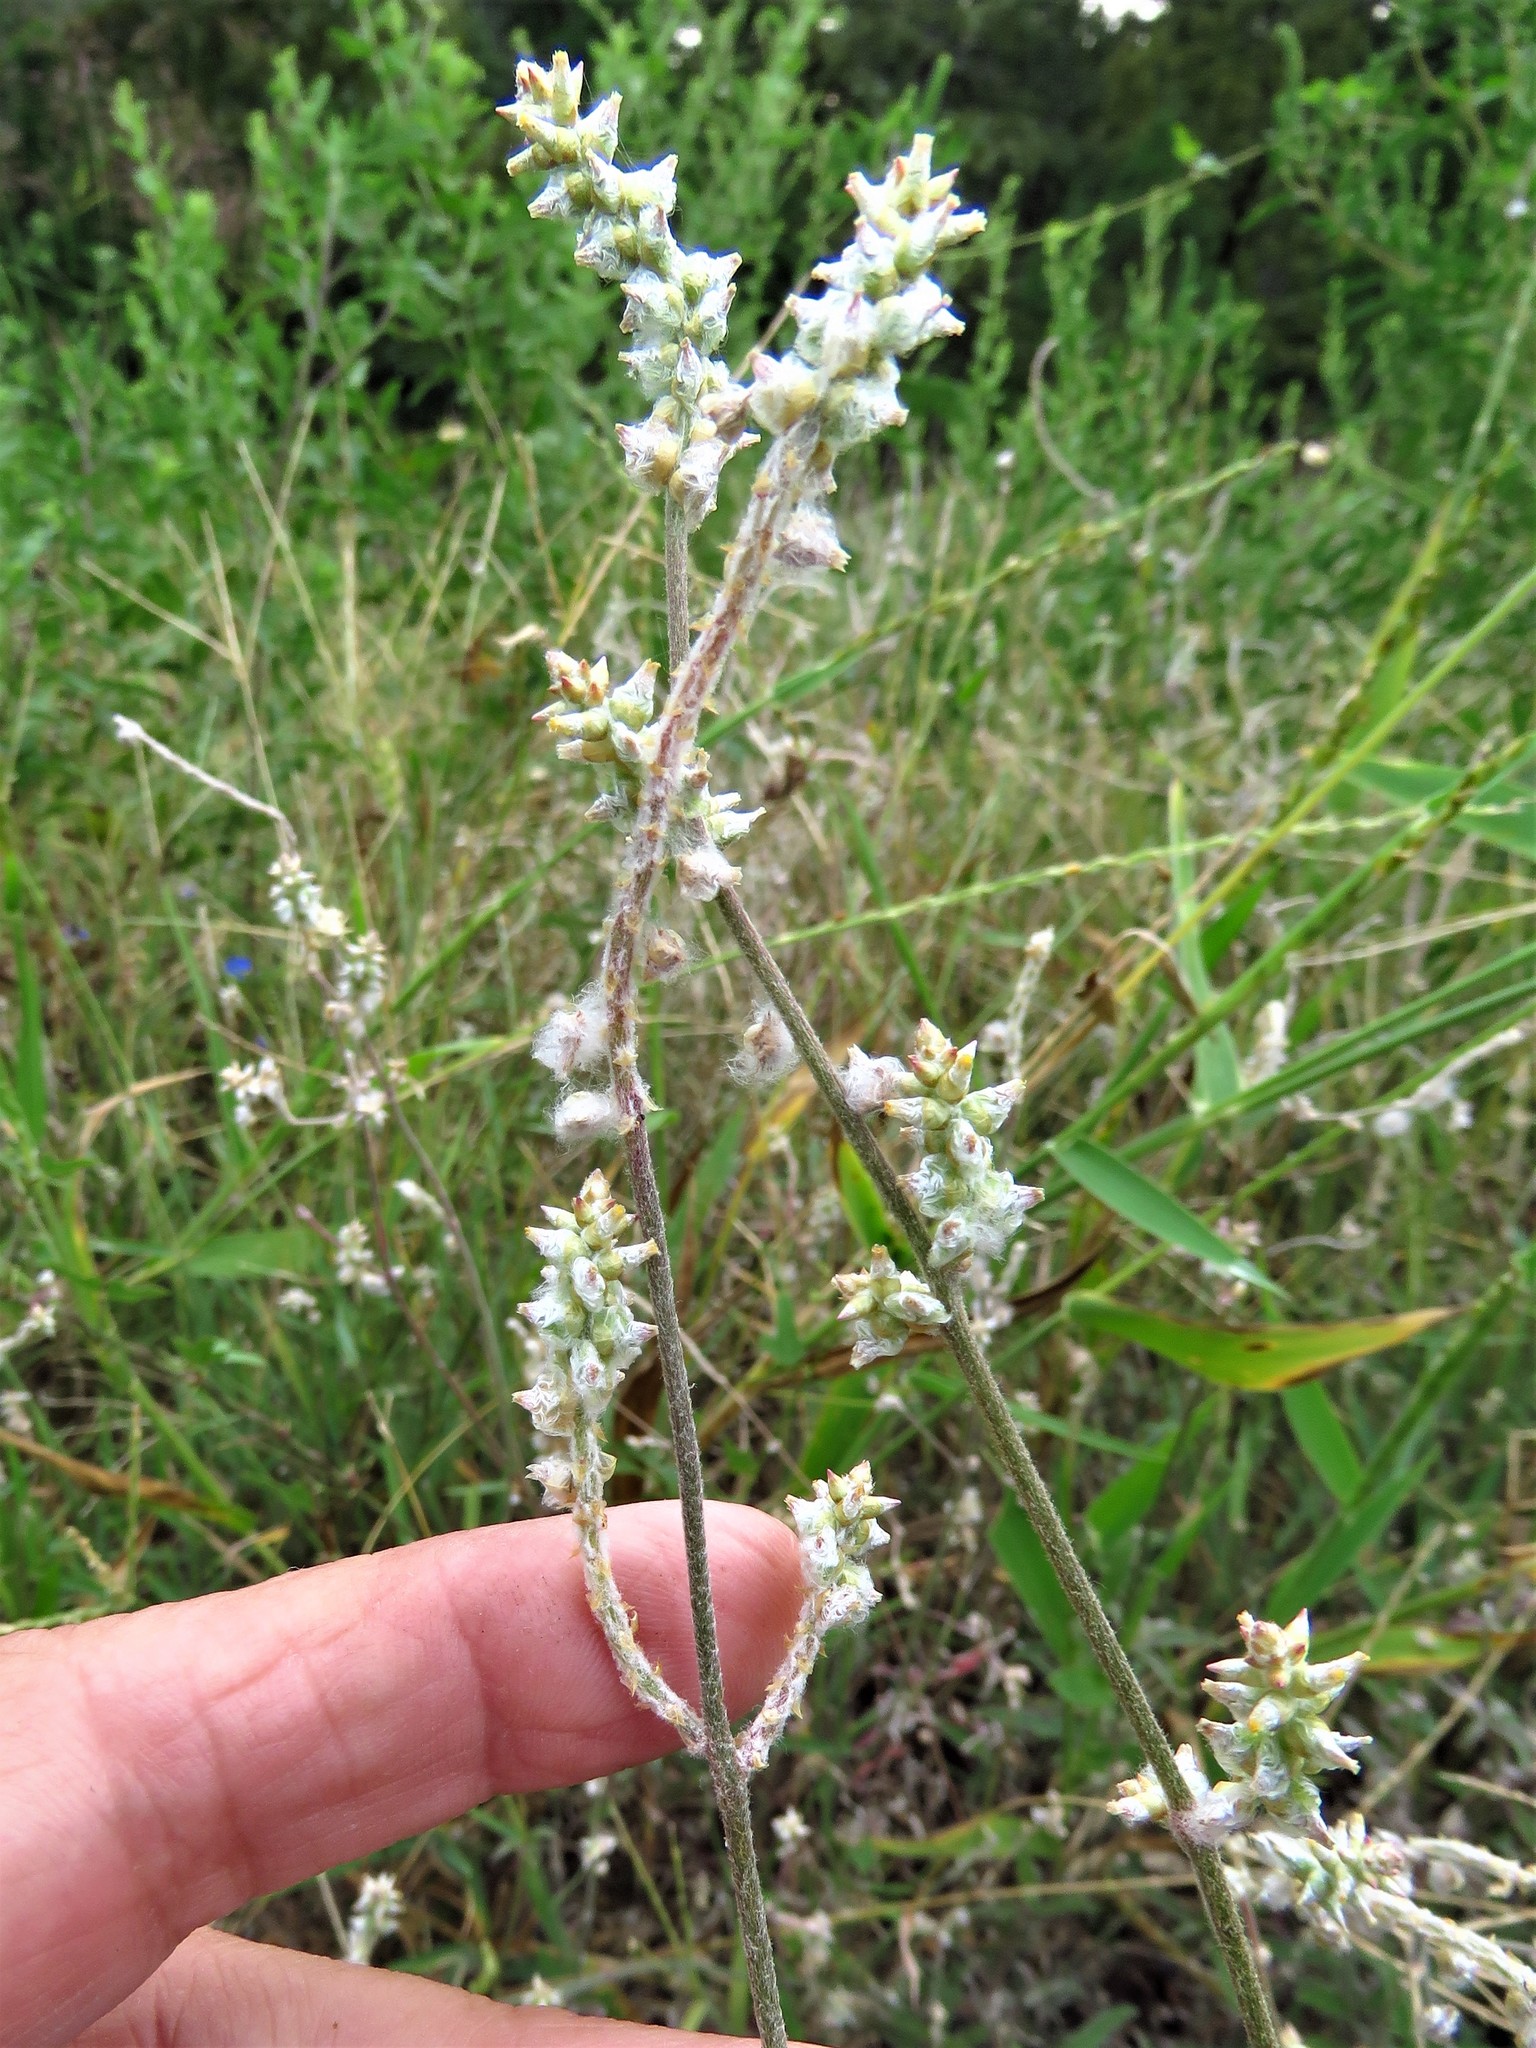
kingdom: Plantae
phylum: Tracheophyta
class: Magnoliopsida
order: Caryophyllales
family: Amaranthaceae
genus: Froelichia
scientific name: Froelichia floridana
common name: Florida snake-cotton
